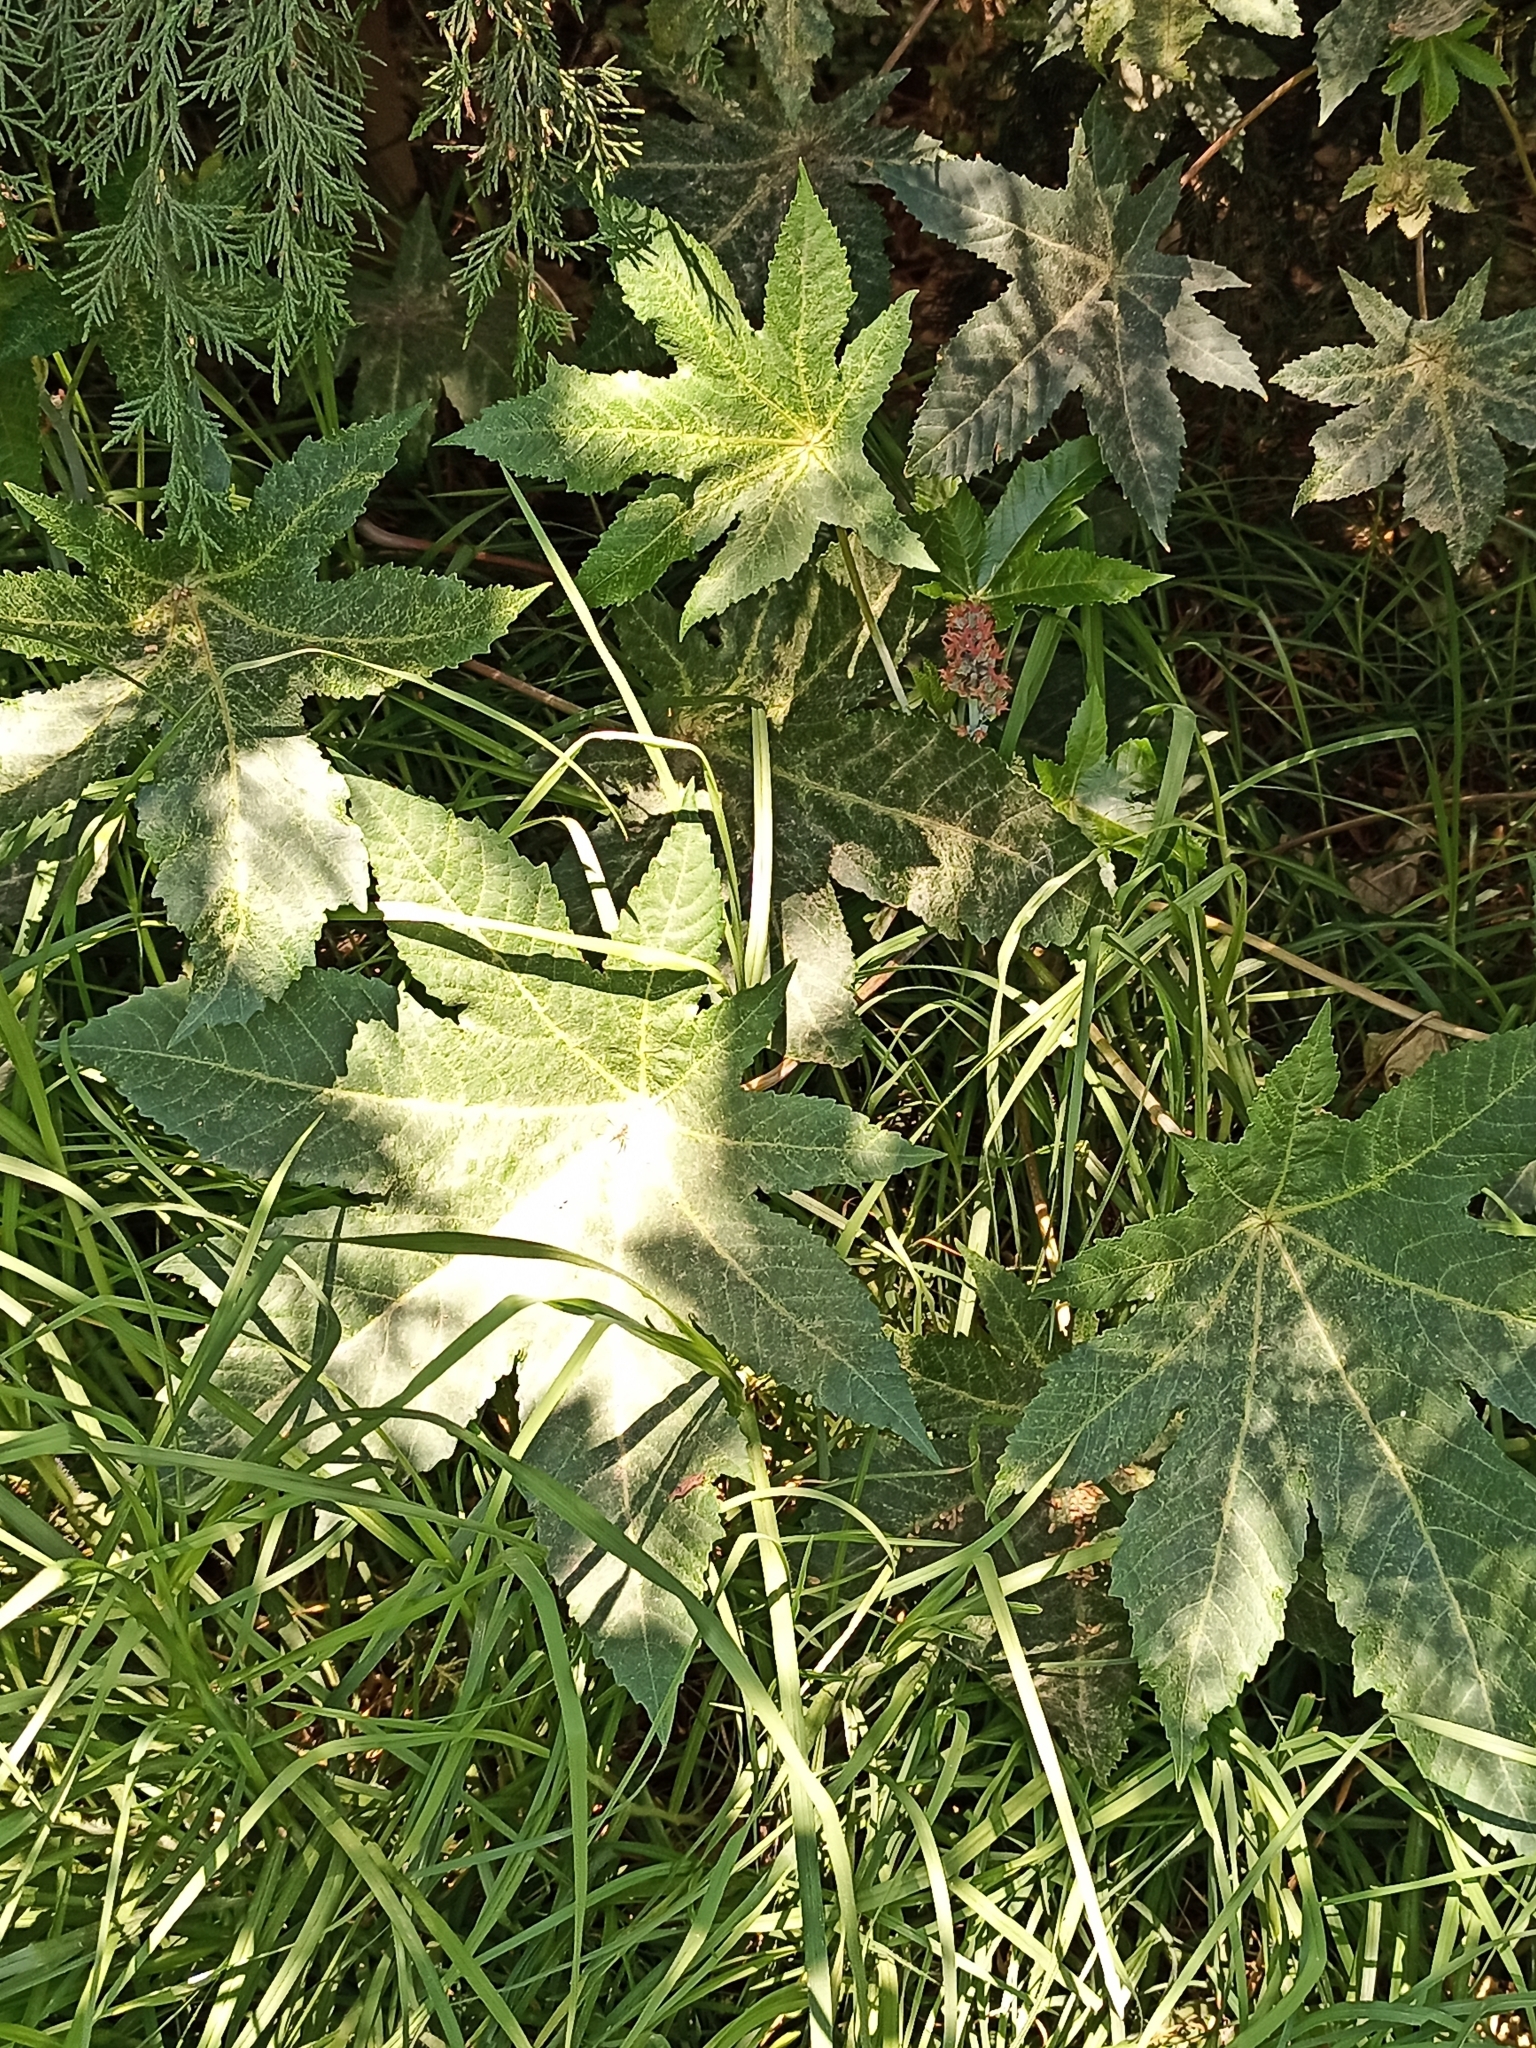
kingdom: Plantae
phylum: Tracheophyta
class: Magnoliopsida
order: Malpighiales
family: Euphorbiaceae
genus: Ricinus
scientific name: Ricinus communis
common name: Castor-oil-plant
